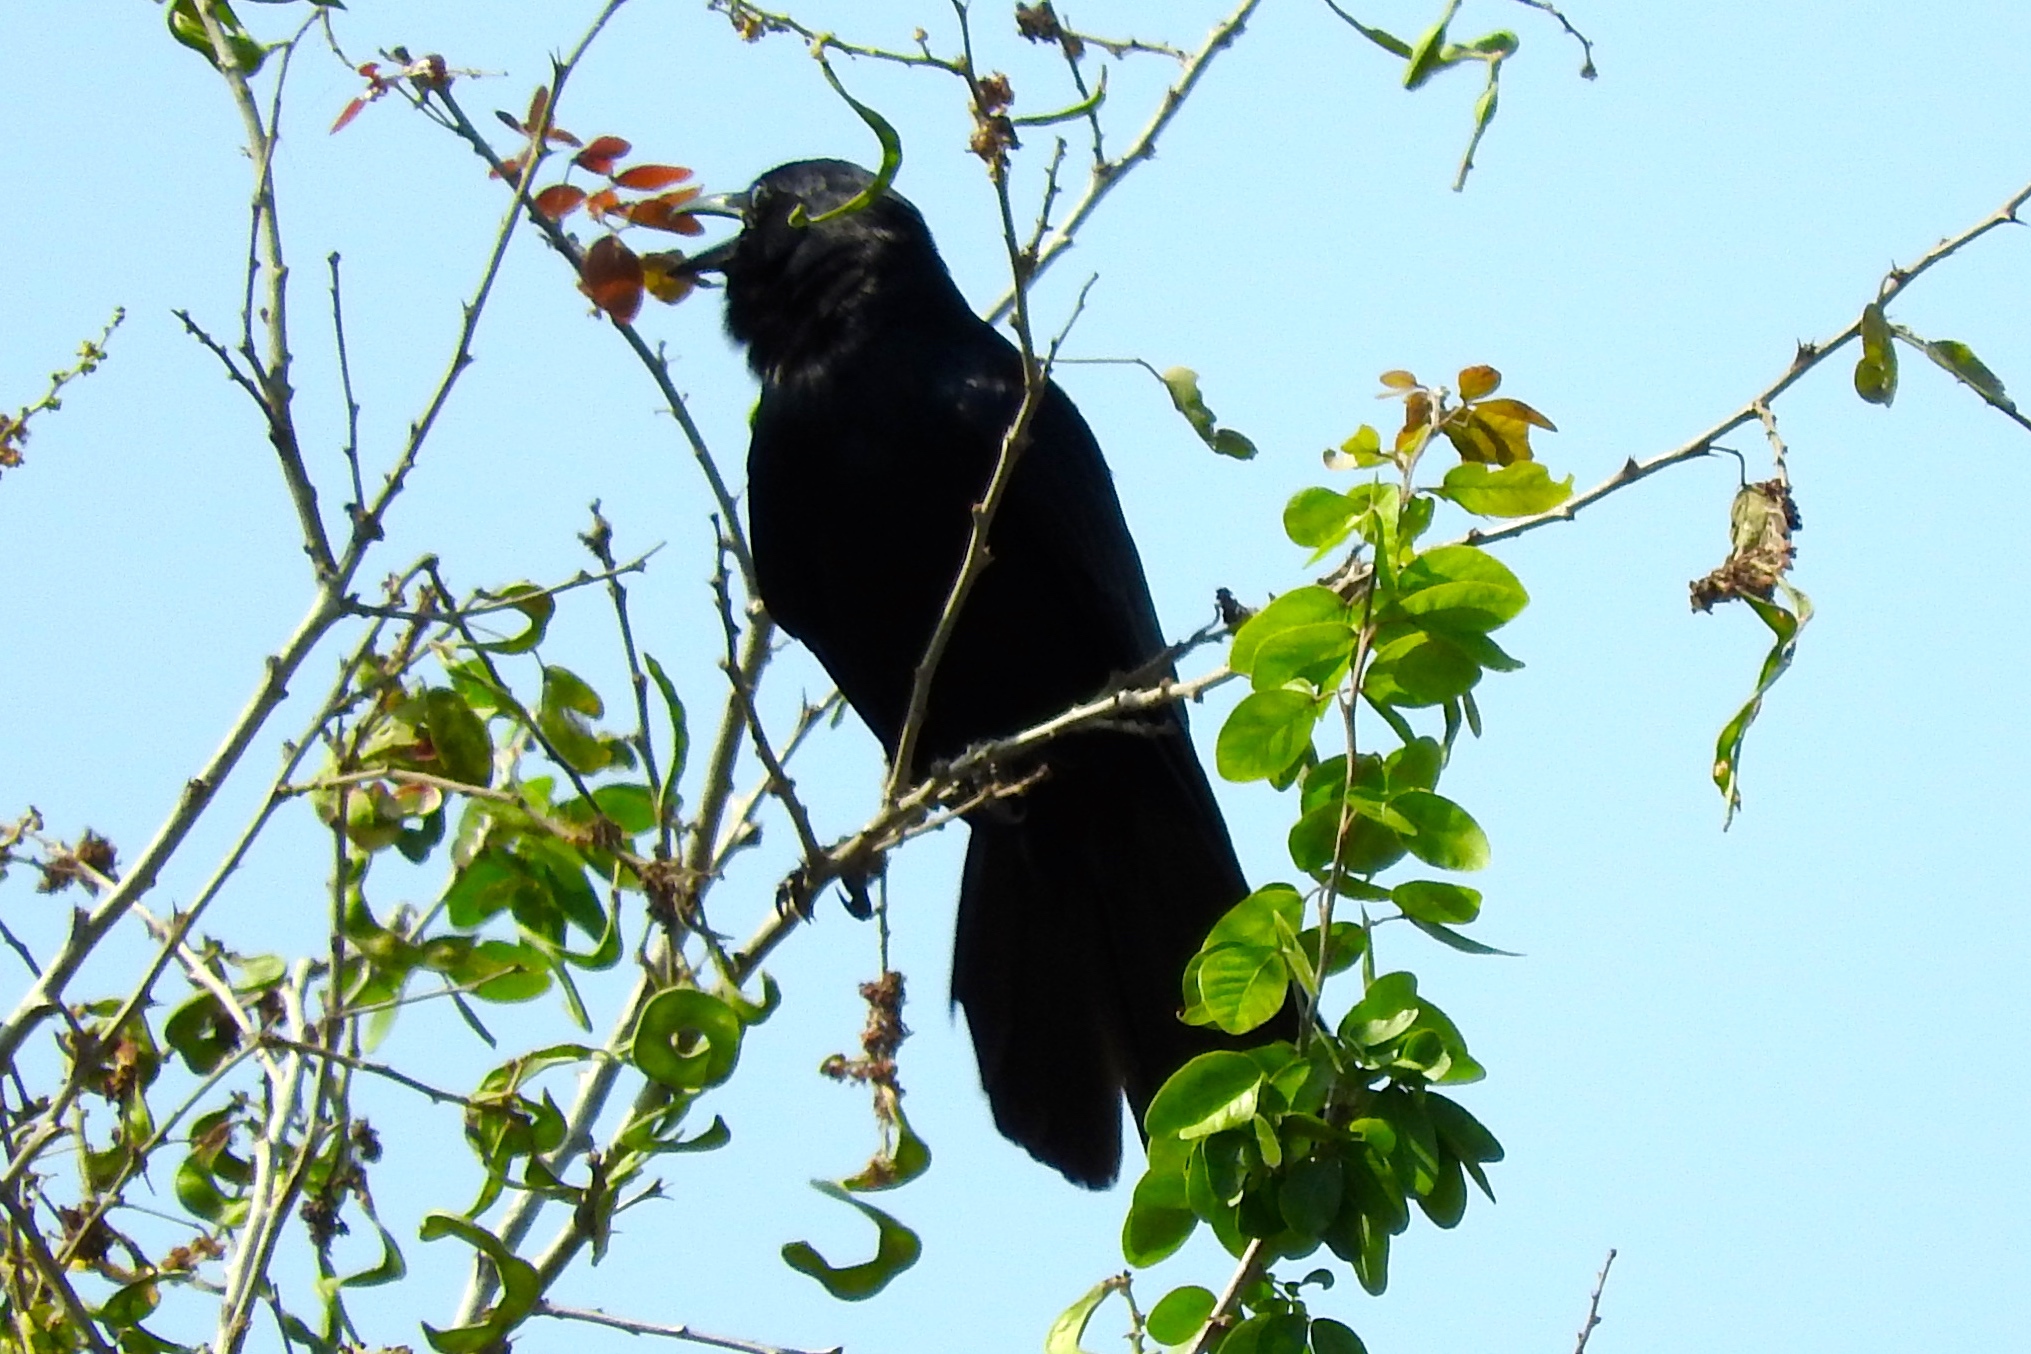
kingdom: Animalia
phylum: Chordata
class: Aves
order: Passeriformes
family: Corvidae
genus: Corvus
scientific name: Corvus sinaloae
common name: Sinaloa crow
